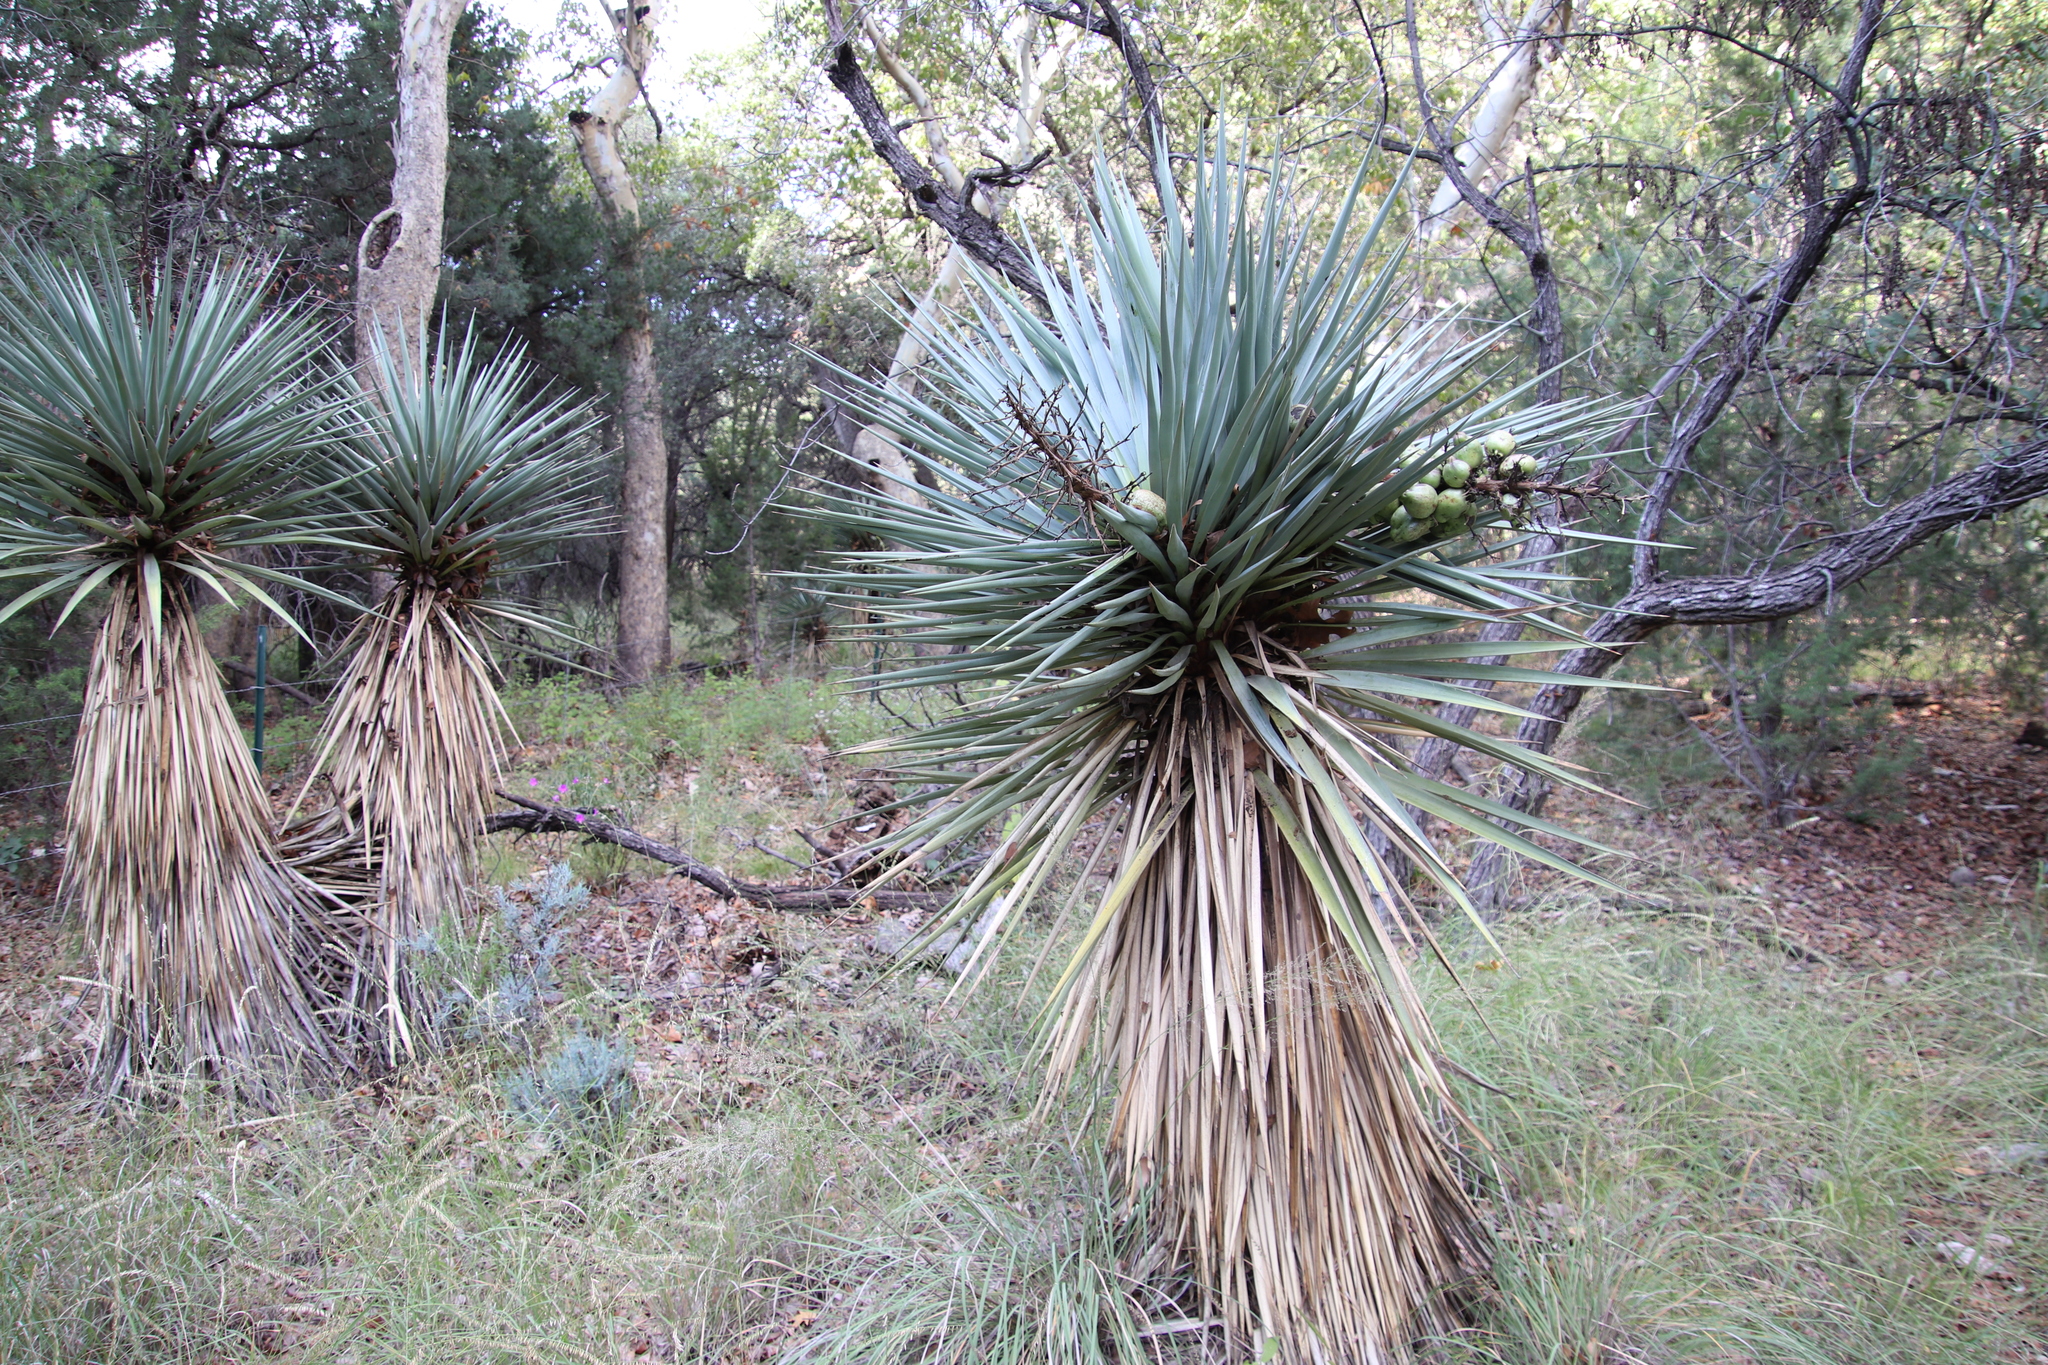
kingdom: Plantae
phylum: Tracheophyta
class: Liliopsida
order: Asparagales
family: Asparagaceae
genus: Yucca
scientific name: Yucca madrensis
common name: Hoary yucca
